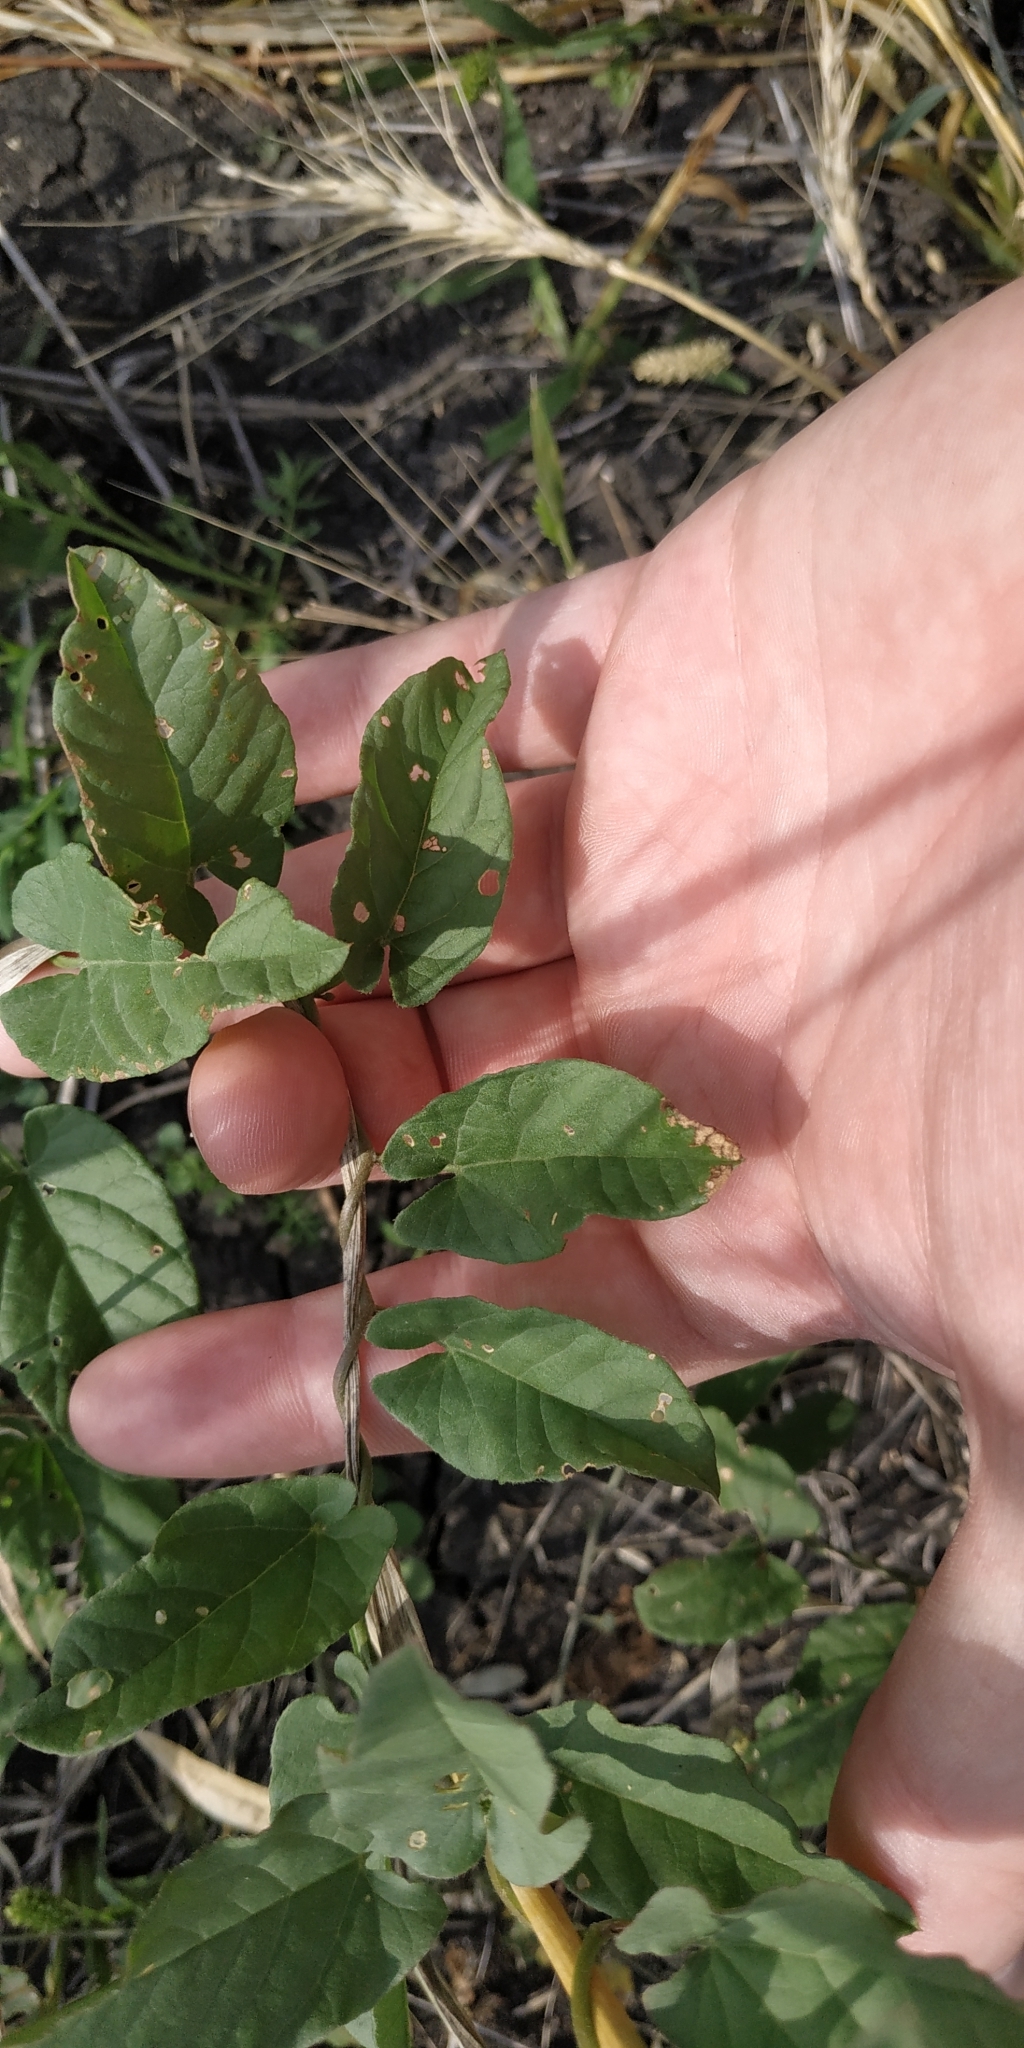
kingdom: Plantae
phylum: Tracheophyta
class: Magnoliopsida
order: Solanales
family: Convolvulaceae
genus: Convolvulus
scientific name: Convolvulus arvensis
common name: Field bindweed
